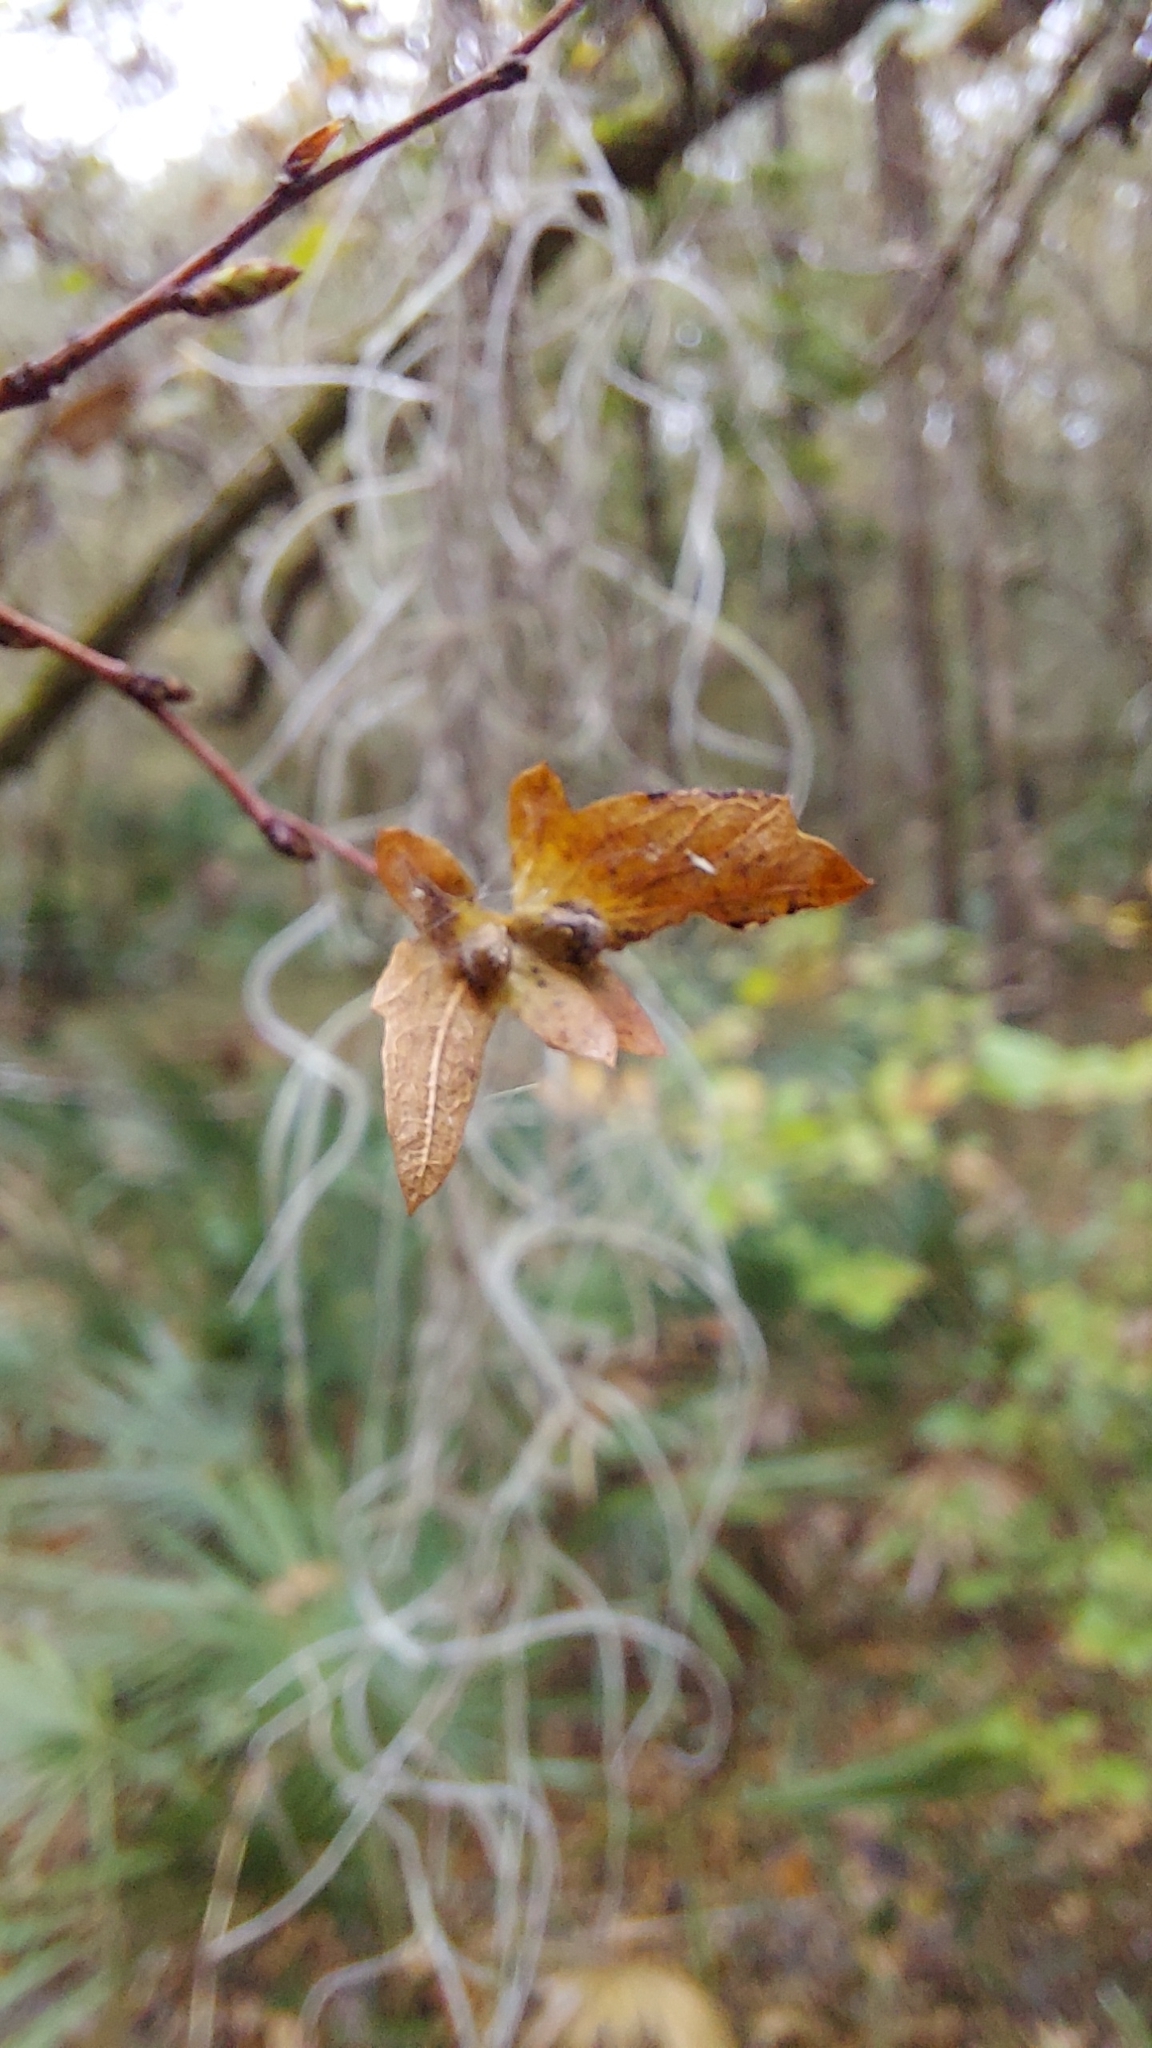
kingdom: Plantae
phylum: Tracheophyta
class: Magnoliopsida
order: Fagales
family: Betulaceae
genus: Carpinus
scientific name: Carpinus caroliniana
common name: American hornbeam
